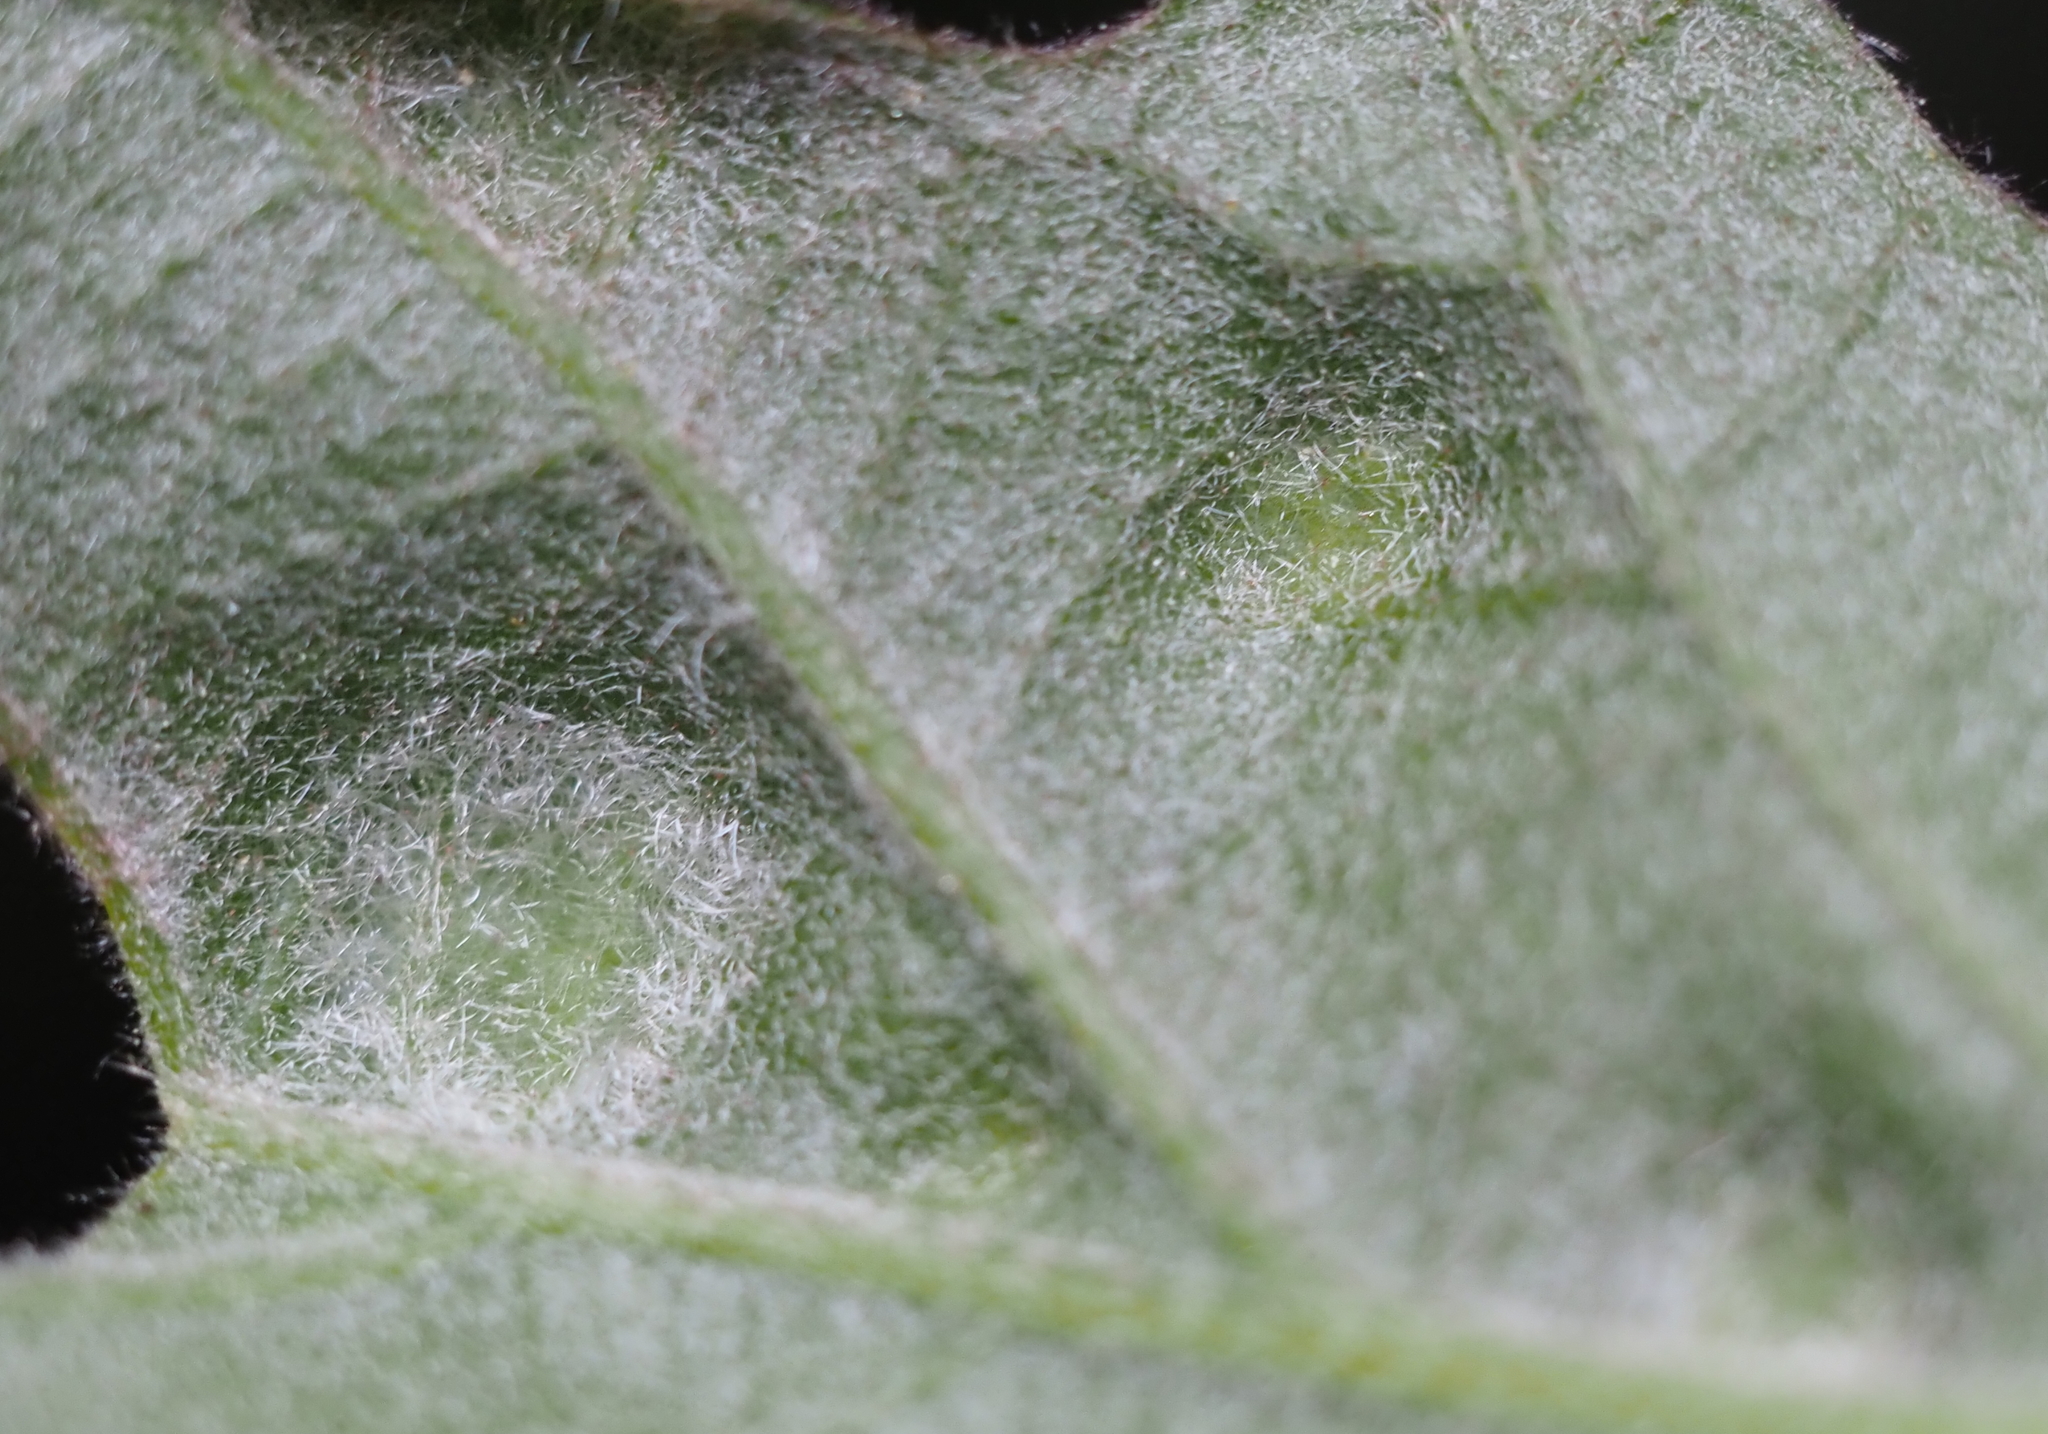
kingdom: Animalia
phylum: Arthropoda
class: Arachnida
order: Trombidiformes
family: Eriophyidae
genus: Aceria
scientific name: Aceria
